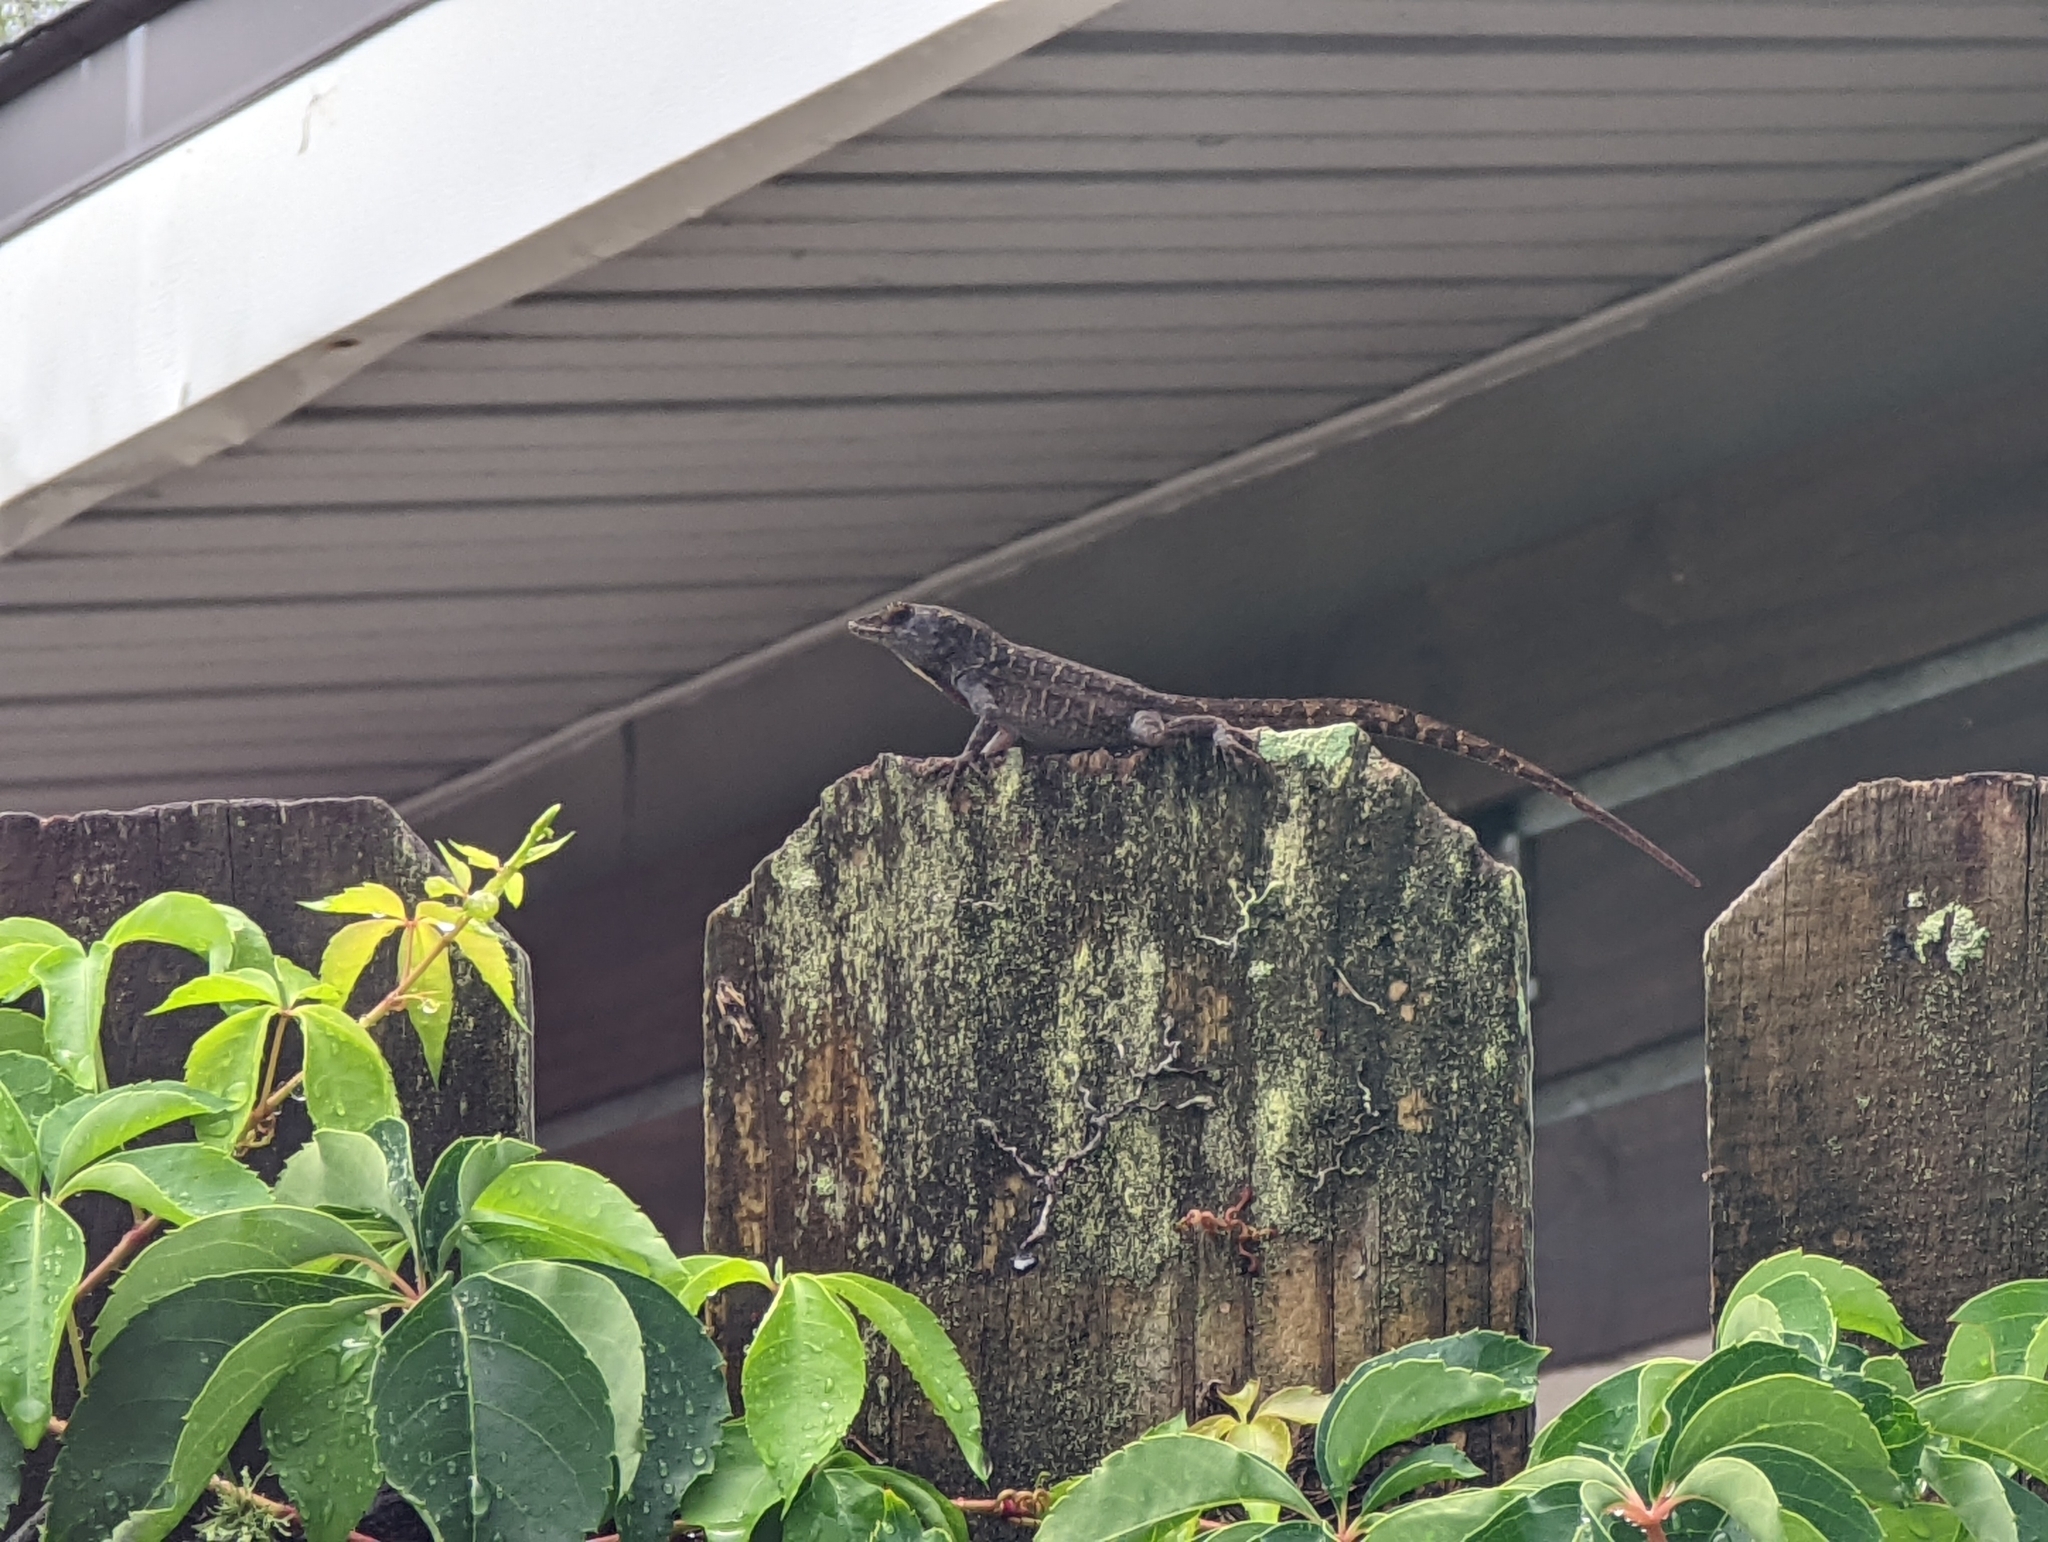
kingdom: Animalia
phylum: Chordata
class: Squamata
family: Dactyloidae
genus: Anolis
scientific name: Anolis sagrei
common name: Brown anole
